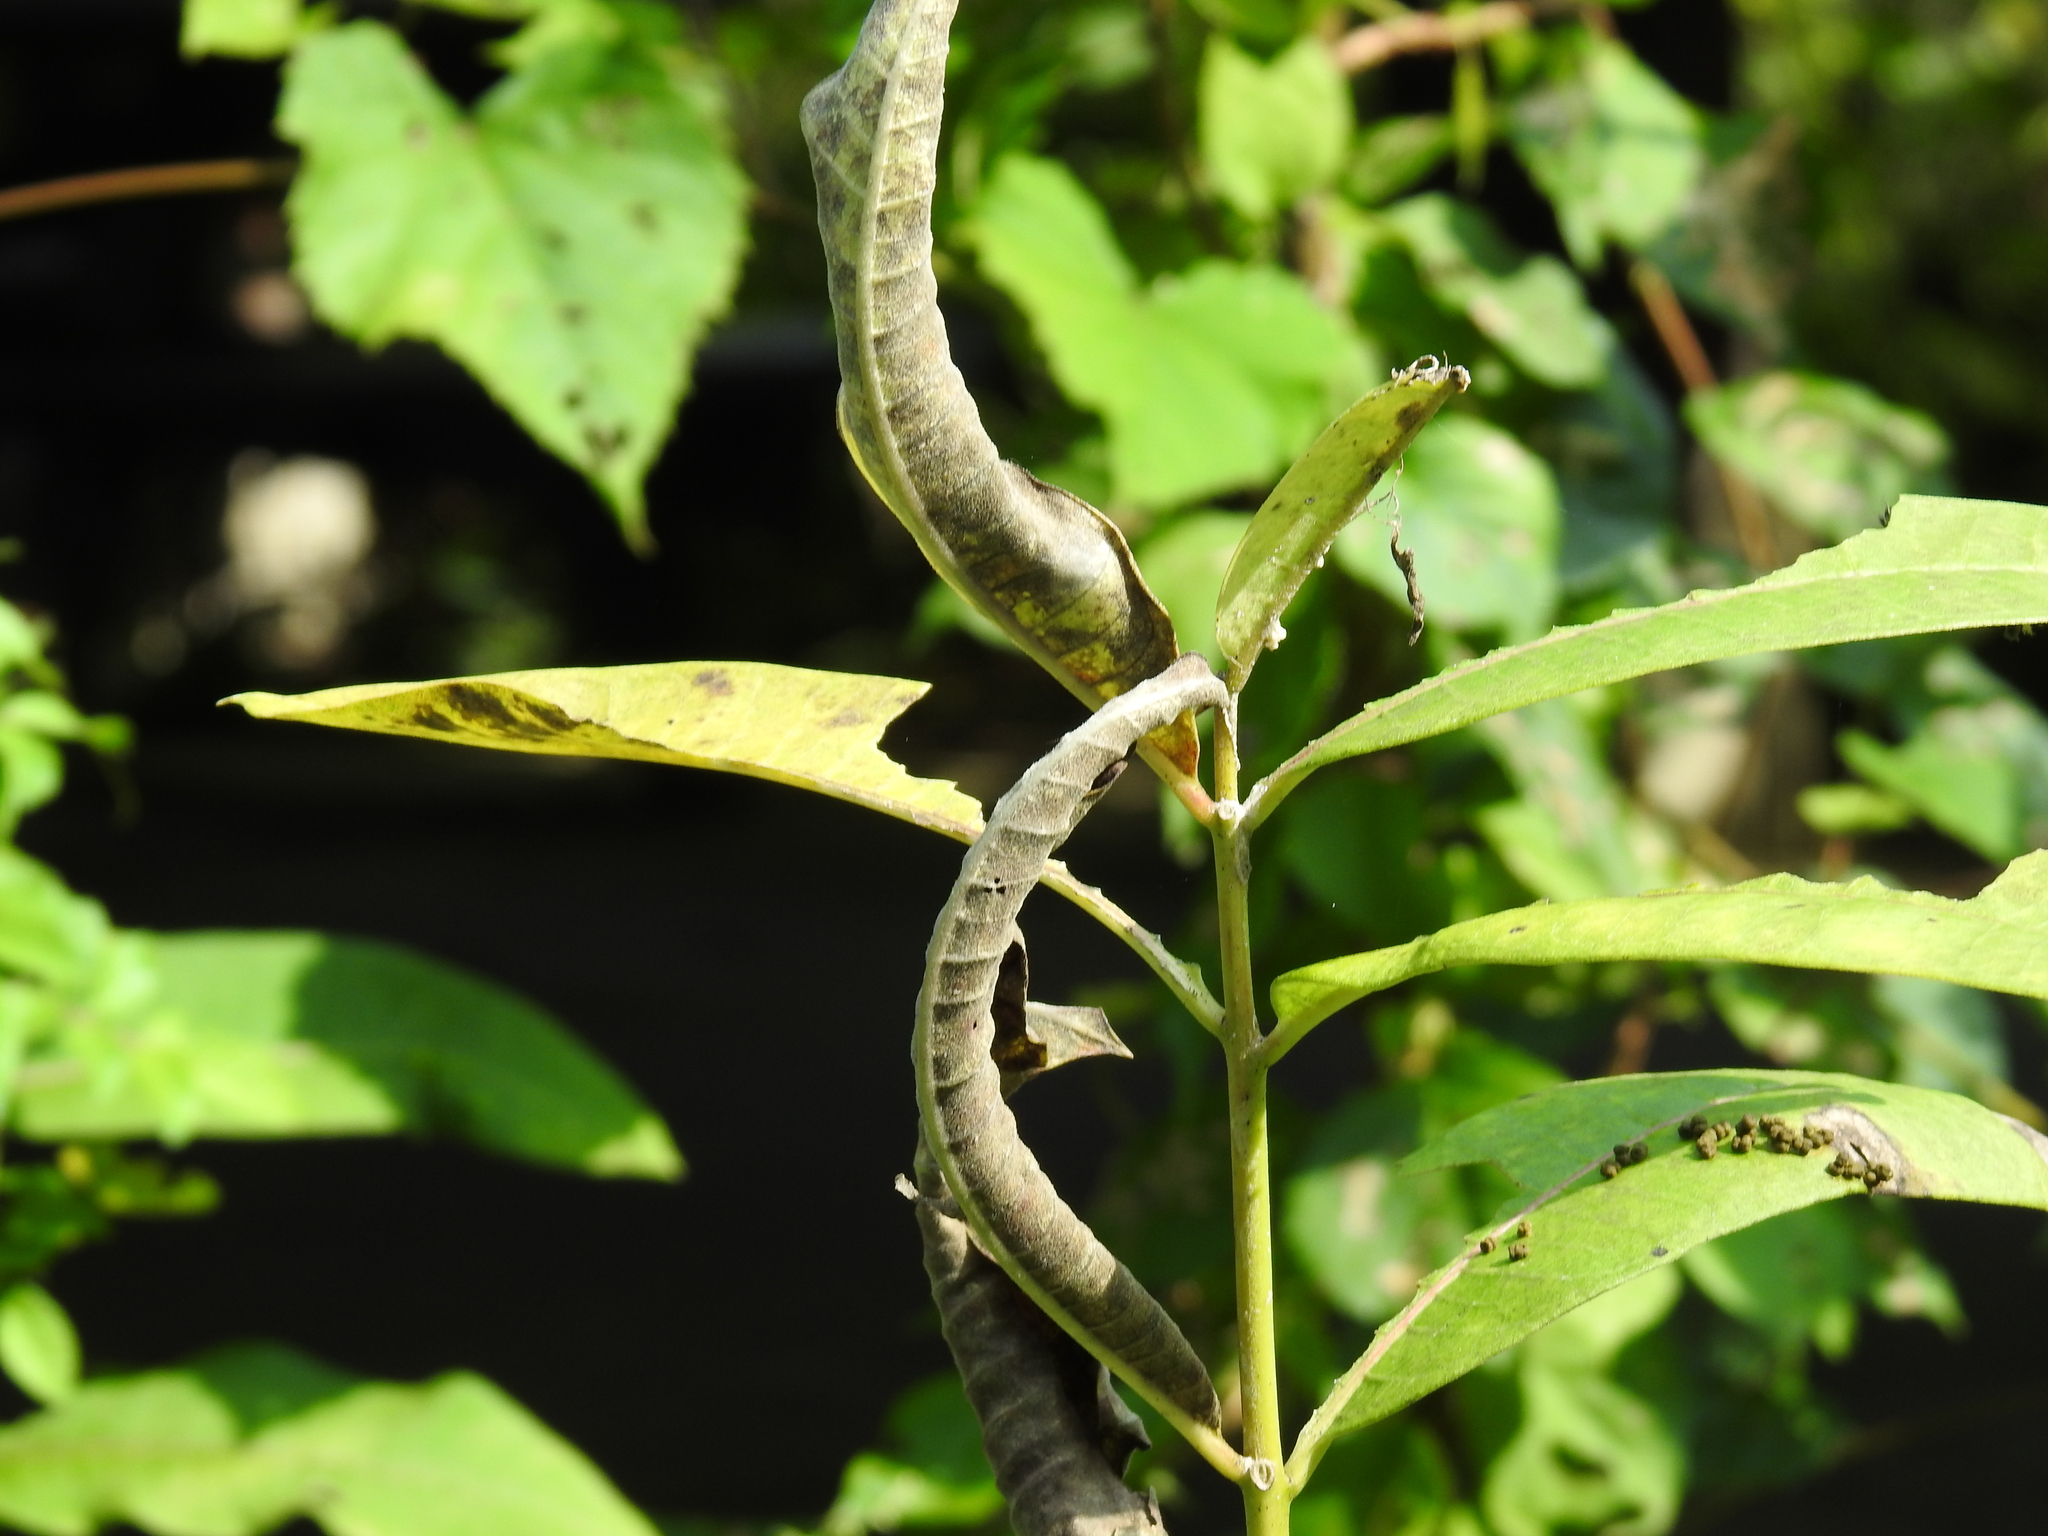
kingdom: Plantae
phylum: Tracheophyta
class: Magnoliopsida
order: Gentianales
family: Apocynaceae
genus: Asclepias
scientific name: Asclepias syriaca
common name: Common milkweed
